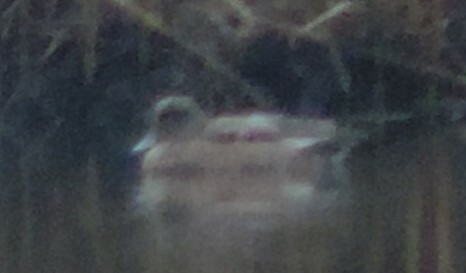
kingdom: Animalia
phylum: Chordata
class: Aves
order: Anseriformes
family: Anatidae
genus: Mareca
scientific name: Mareca americana
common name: American wigeon
